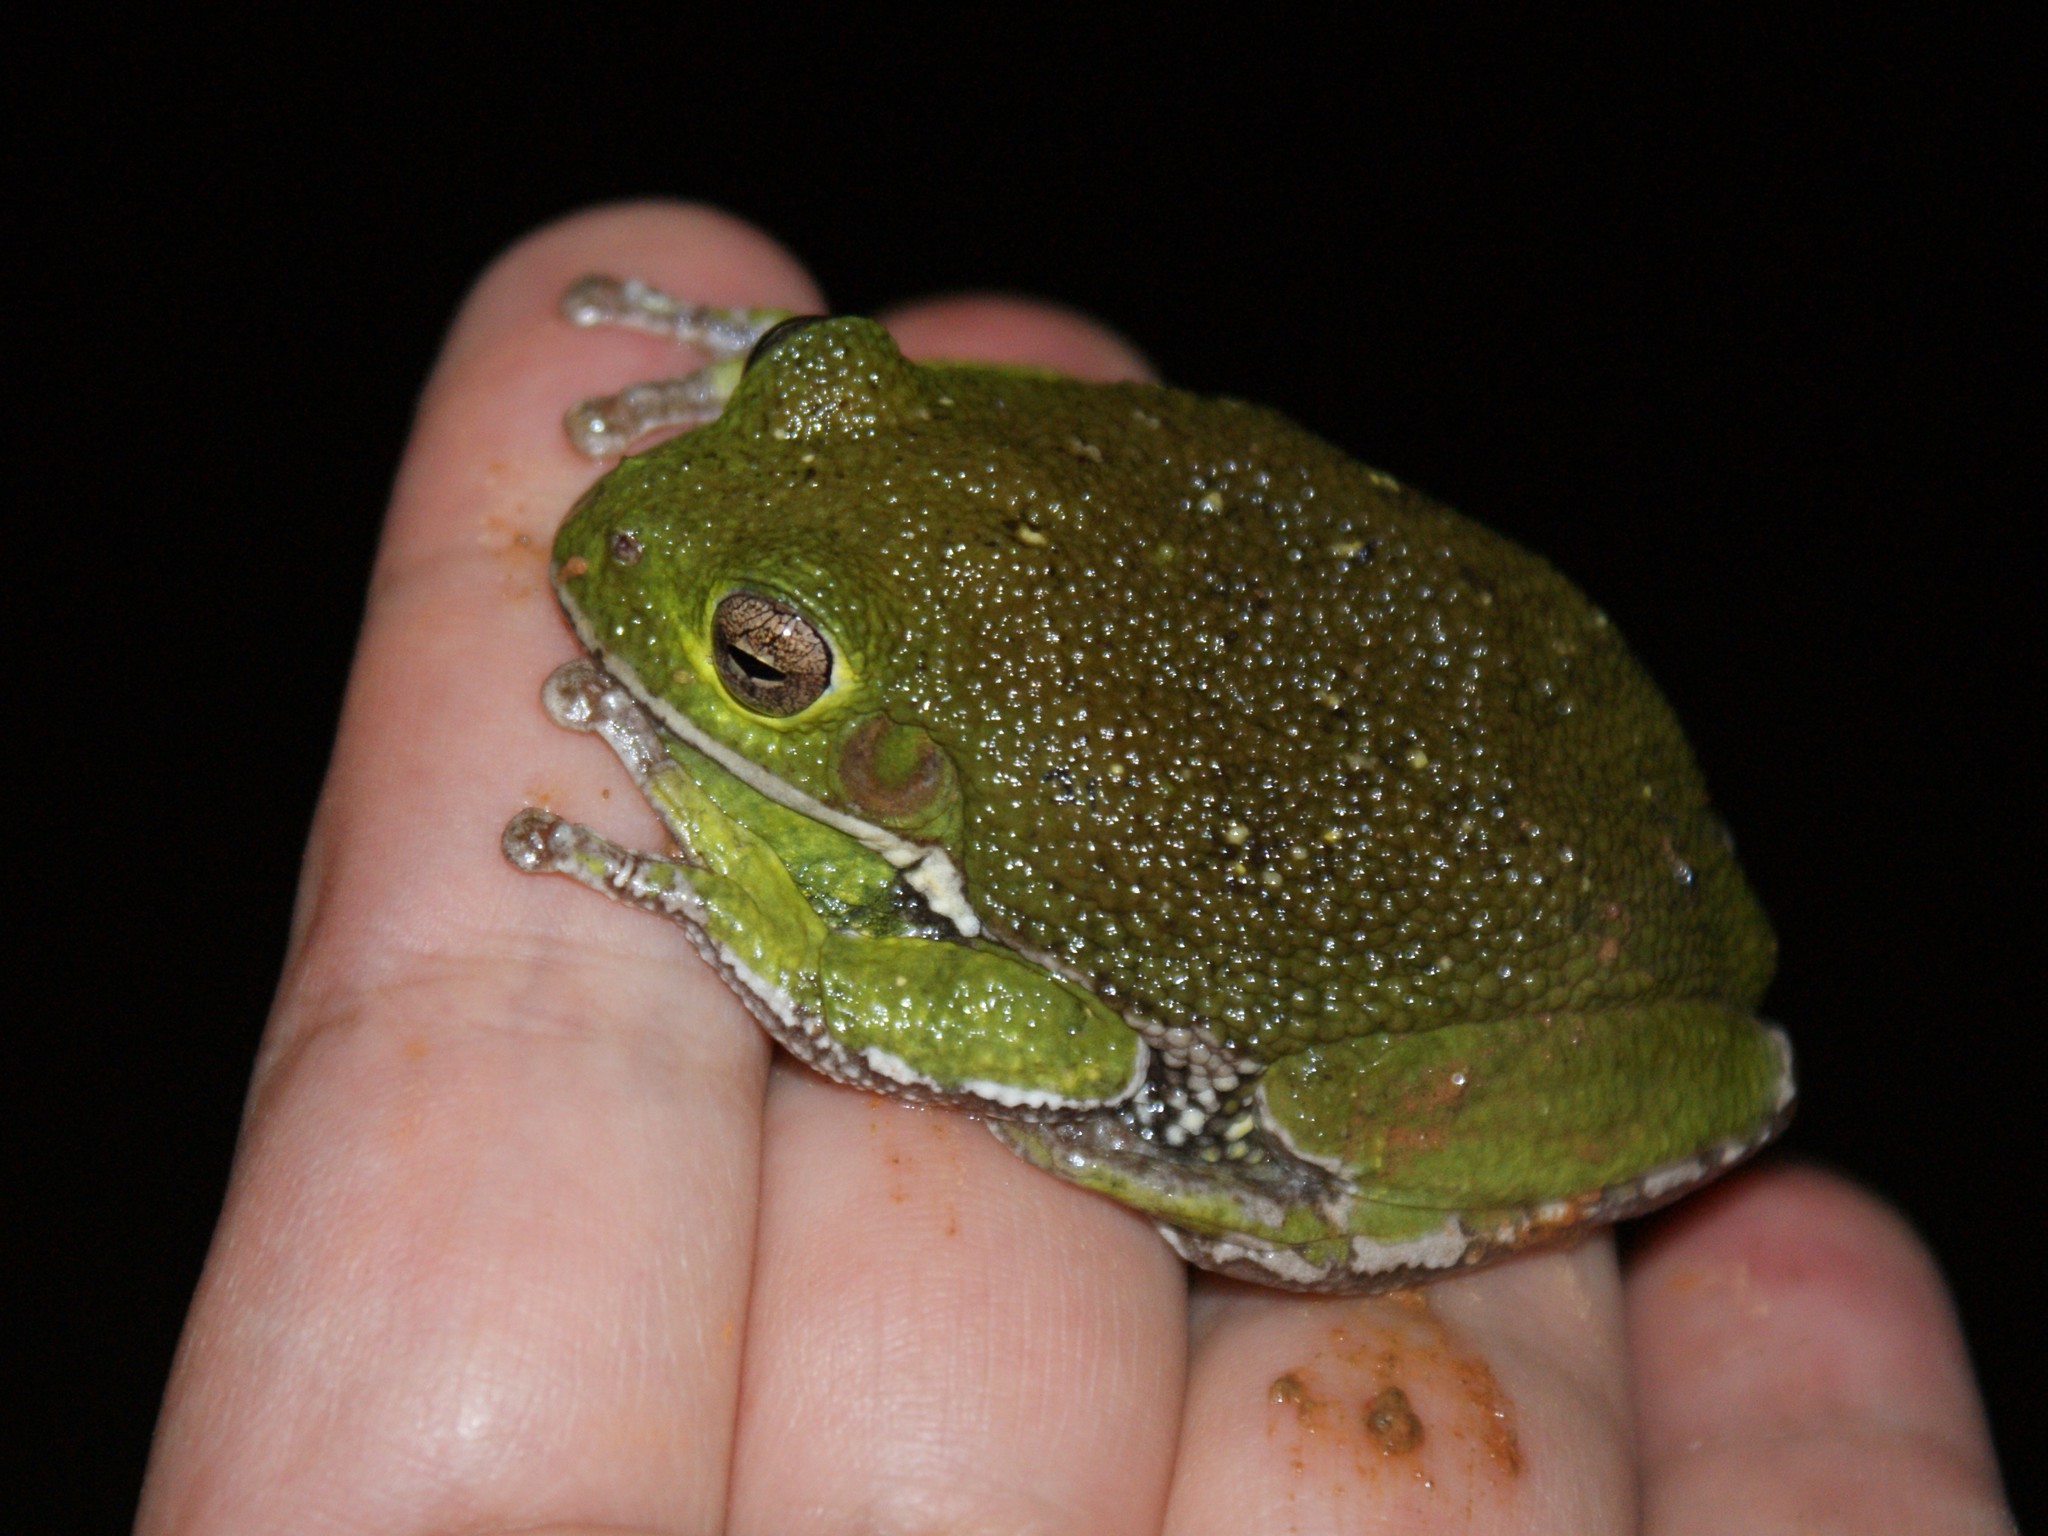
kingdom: Animalia
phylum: Chordata
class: Amphibia
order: Anura
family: Hylidae
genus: Dryophytes
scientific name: Dryophytes gratiosus
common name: Barking treefrog
